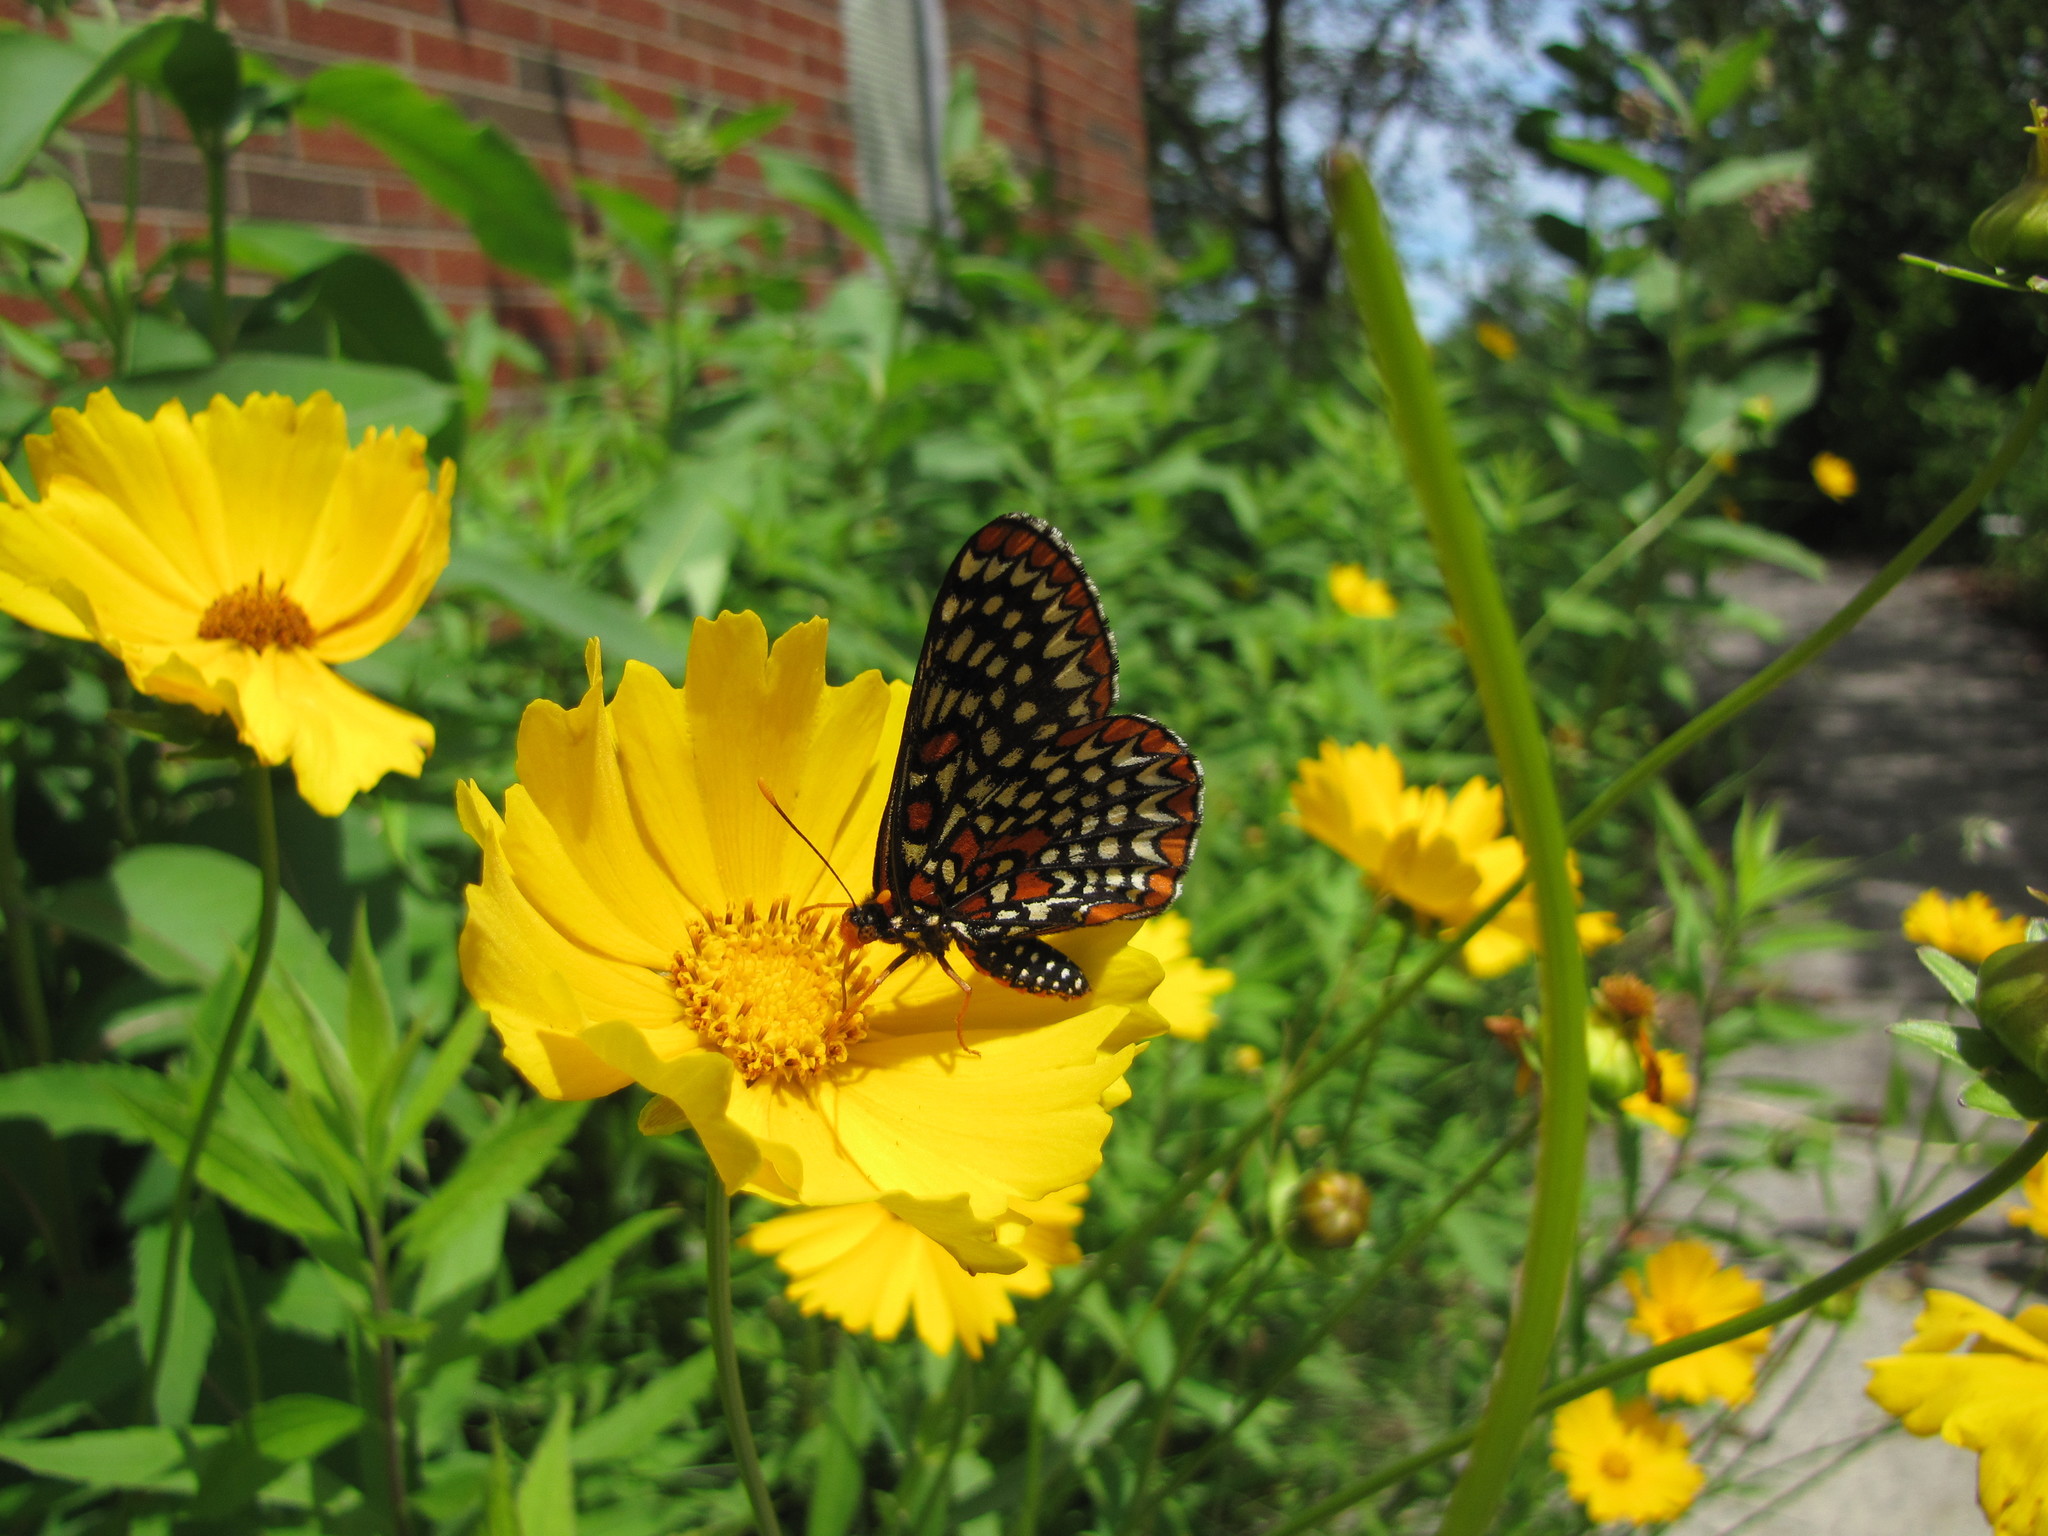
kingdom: Animalia
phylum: Arthropoda
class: Insecta
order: Lepidoptera
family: Nymphalidae
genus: Euphydryas
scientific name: Euphydryas phaeton
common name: Baltimore checkerspot
